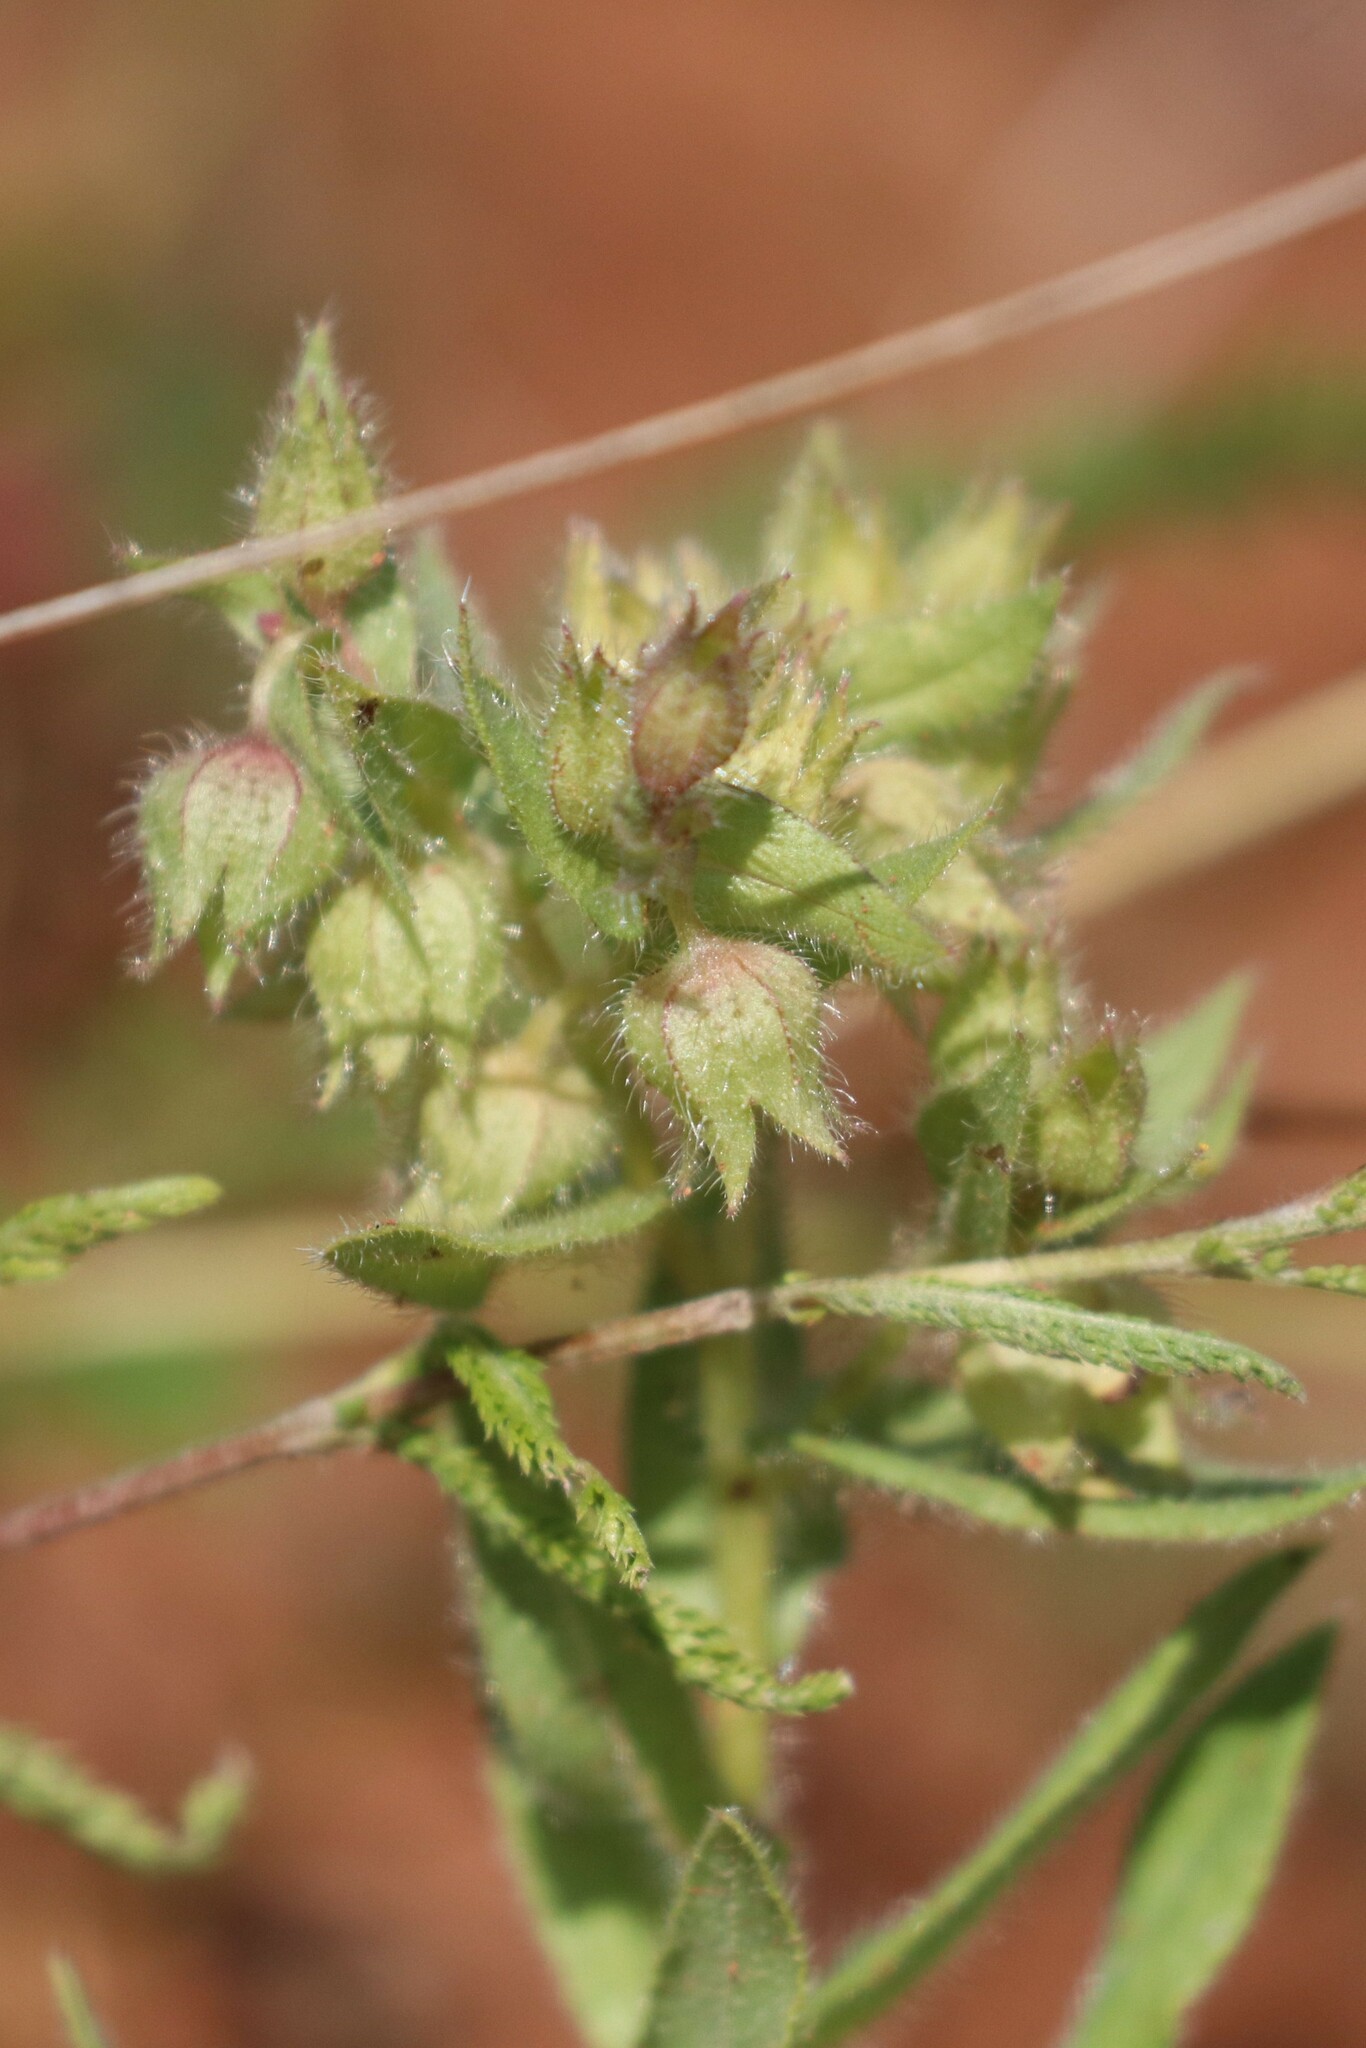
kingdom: Plantae
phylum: Tracheophyta
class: Magnoliopsida
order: Boraginales
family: Boraginaceae
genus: Nonea
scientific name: Nonea pulla
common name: Brown nonea
